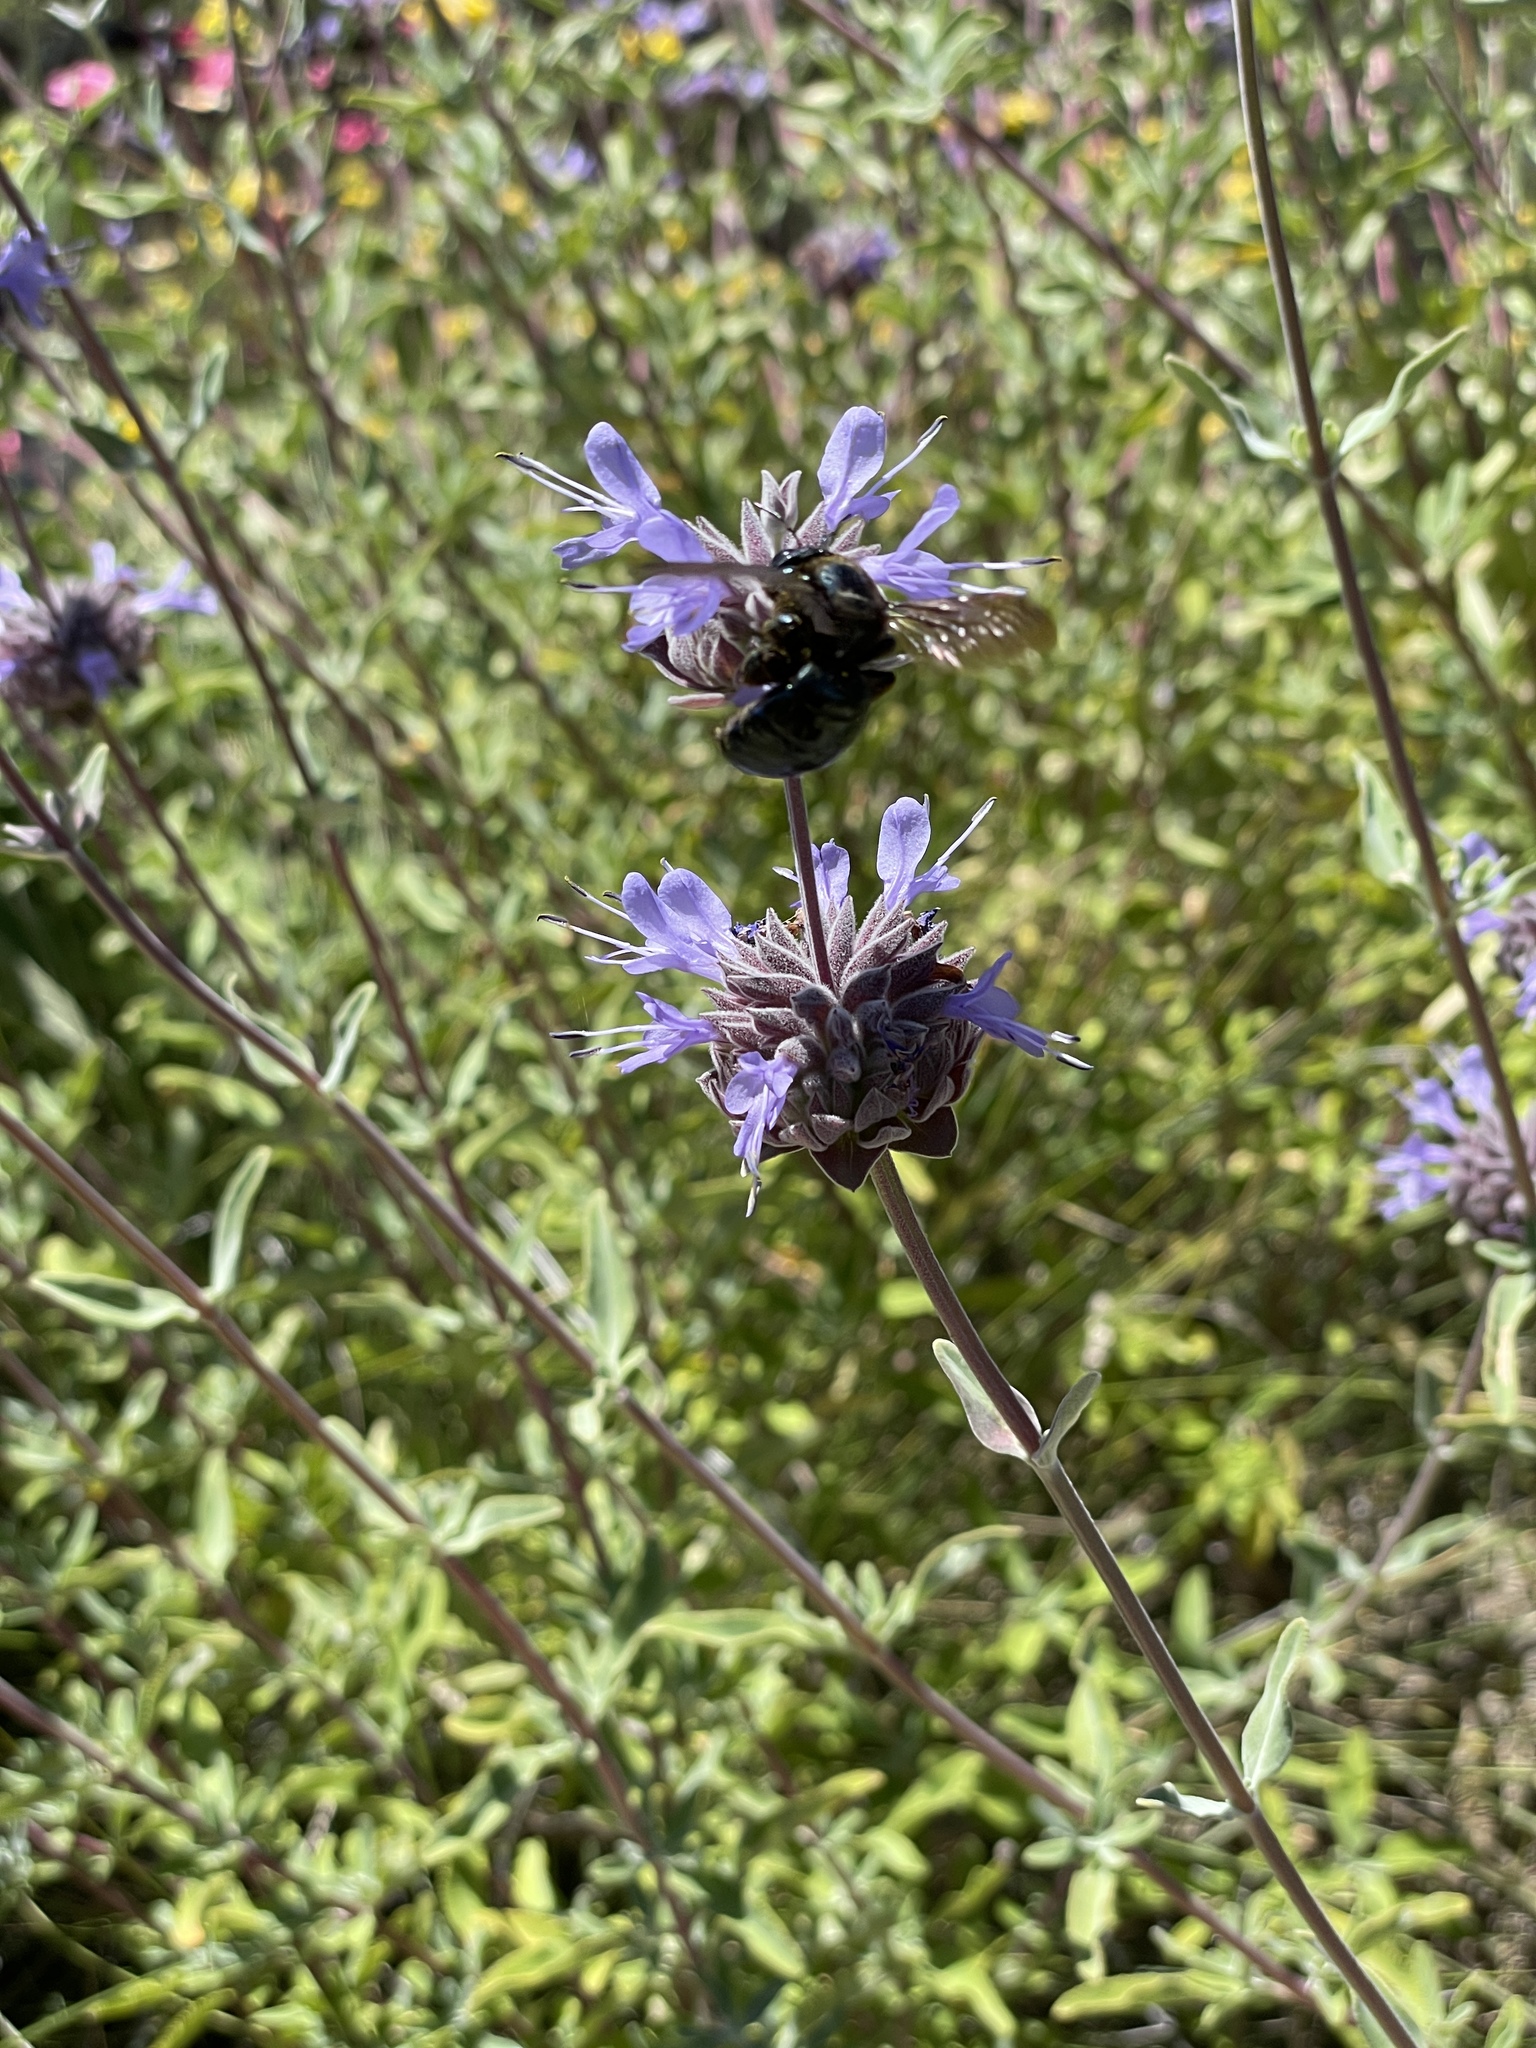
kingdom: Animalia
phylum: Arthropoda
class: Insecta
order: Hymenoptera
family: Apidae
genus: Xylocopa
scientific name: Xylocopa californica
